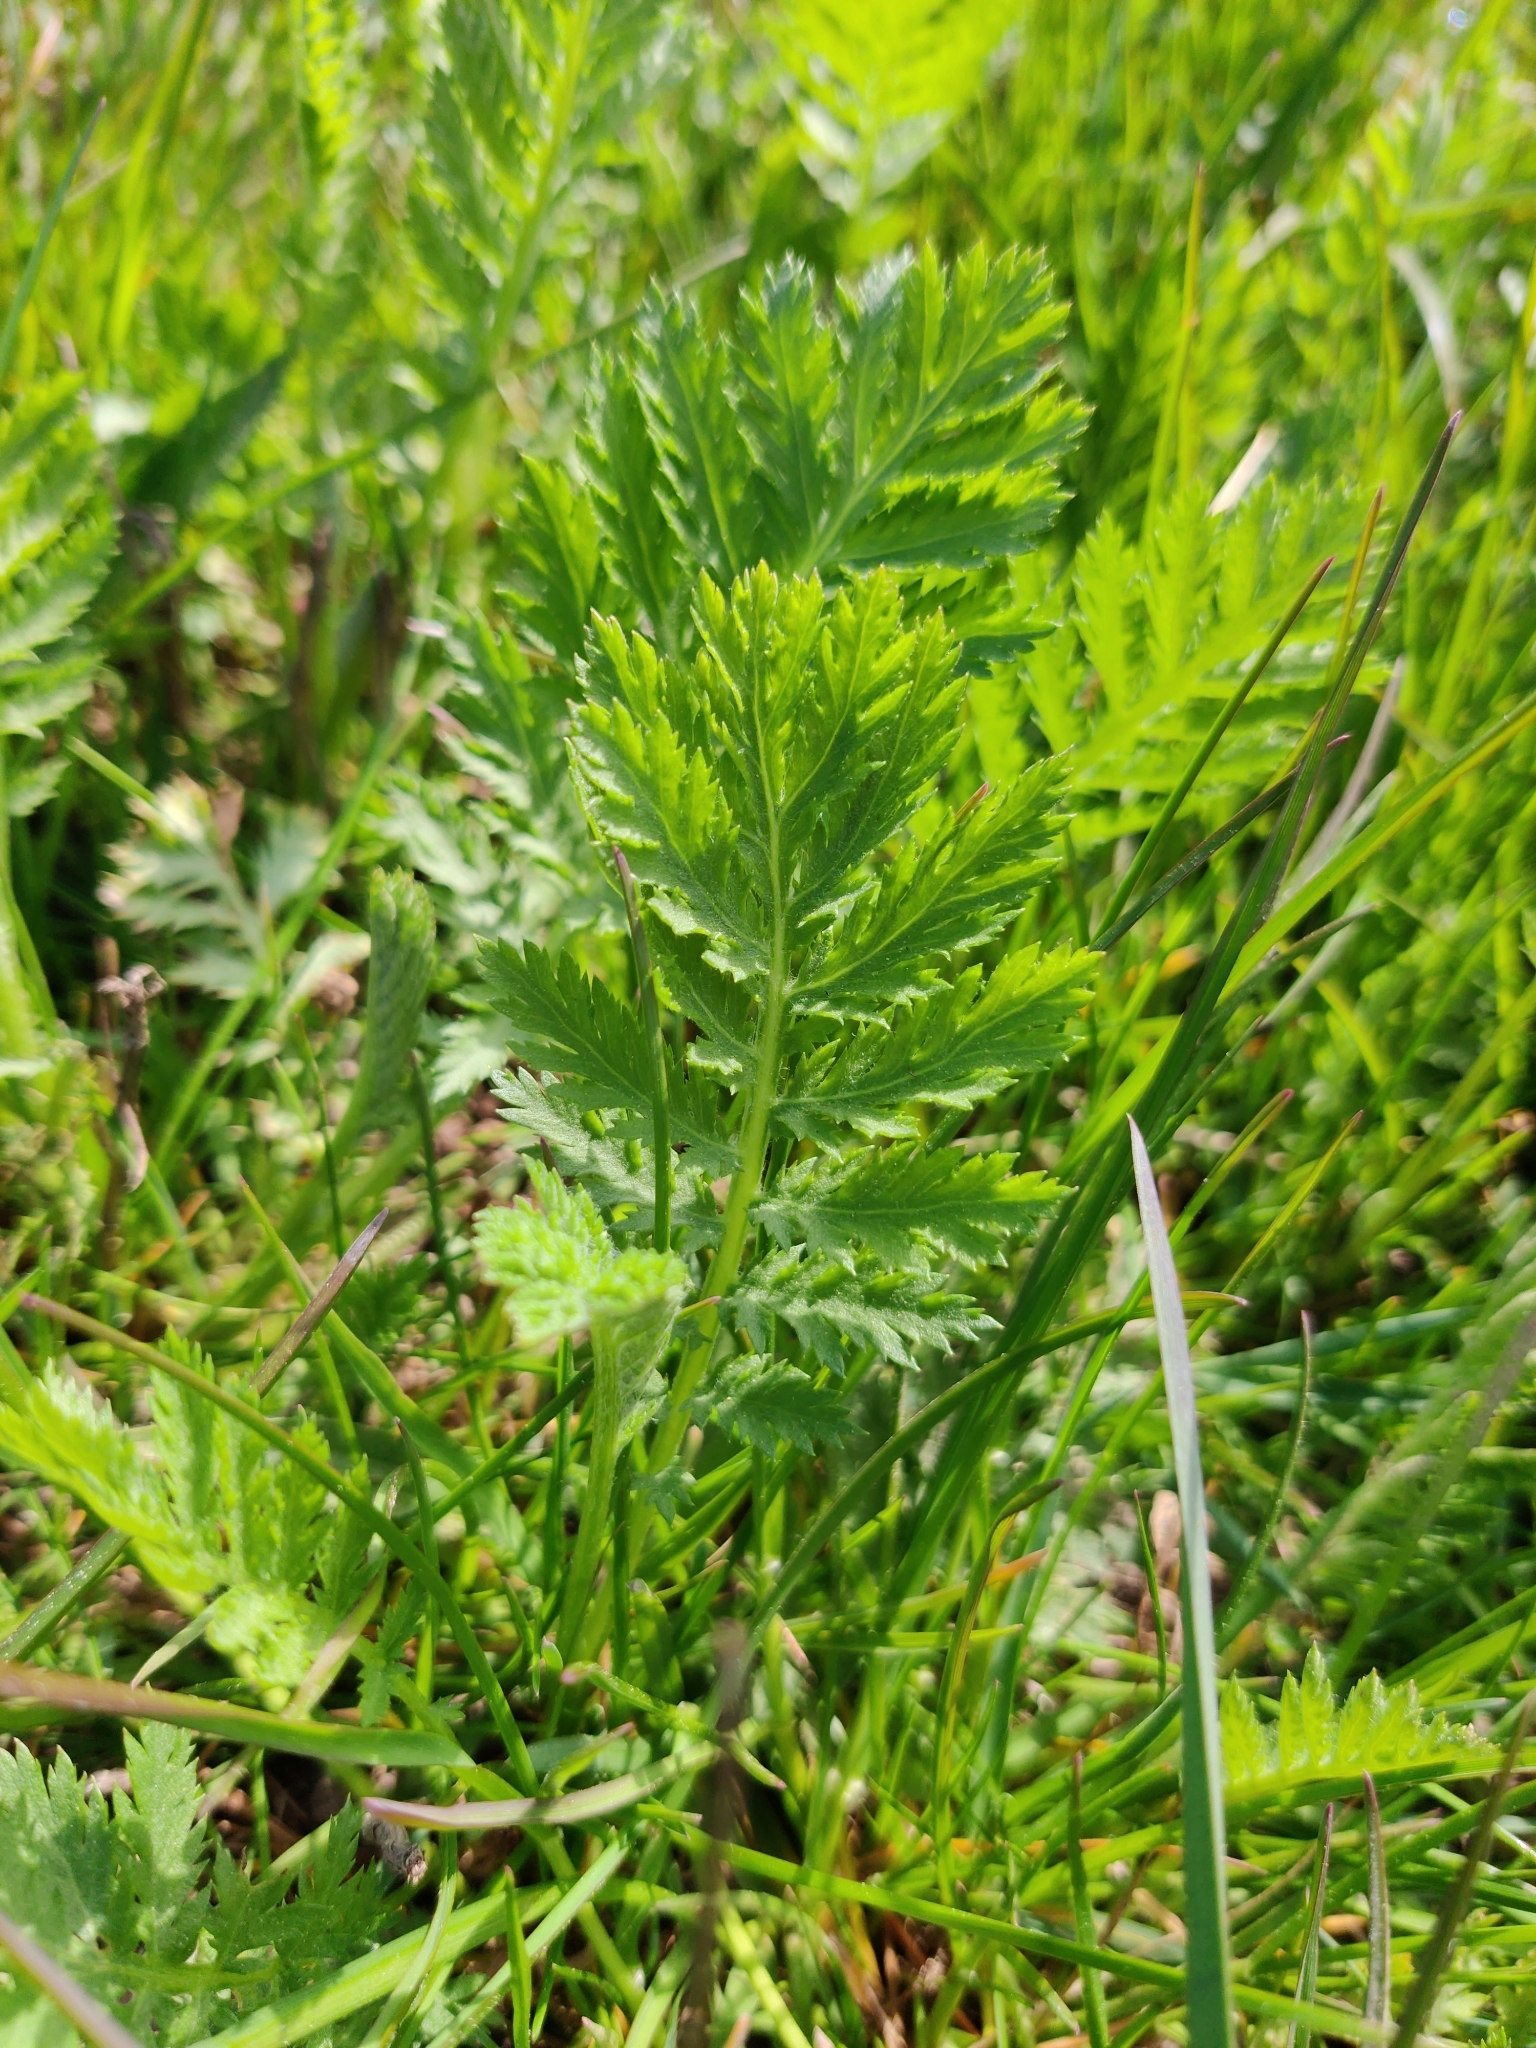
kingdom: Plantae
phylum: Tracheophyta
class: Magnoliopsida
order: Asterales
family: Asteraceae
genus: Tanacetum
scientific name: Tanacetum vulgare
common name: Common tansy
